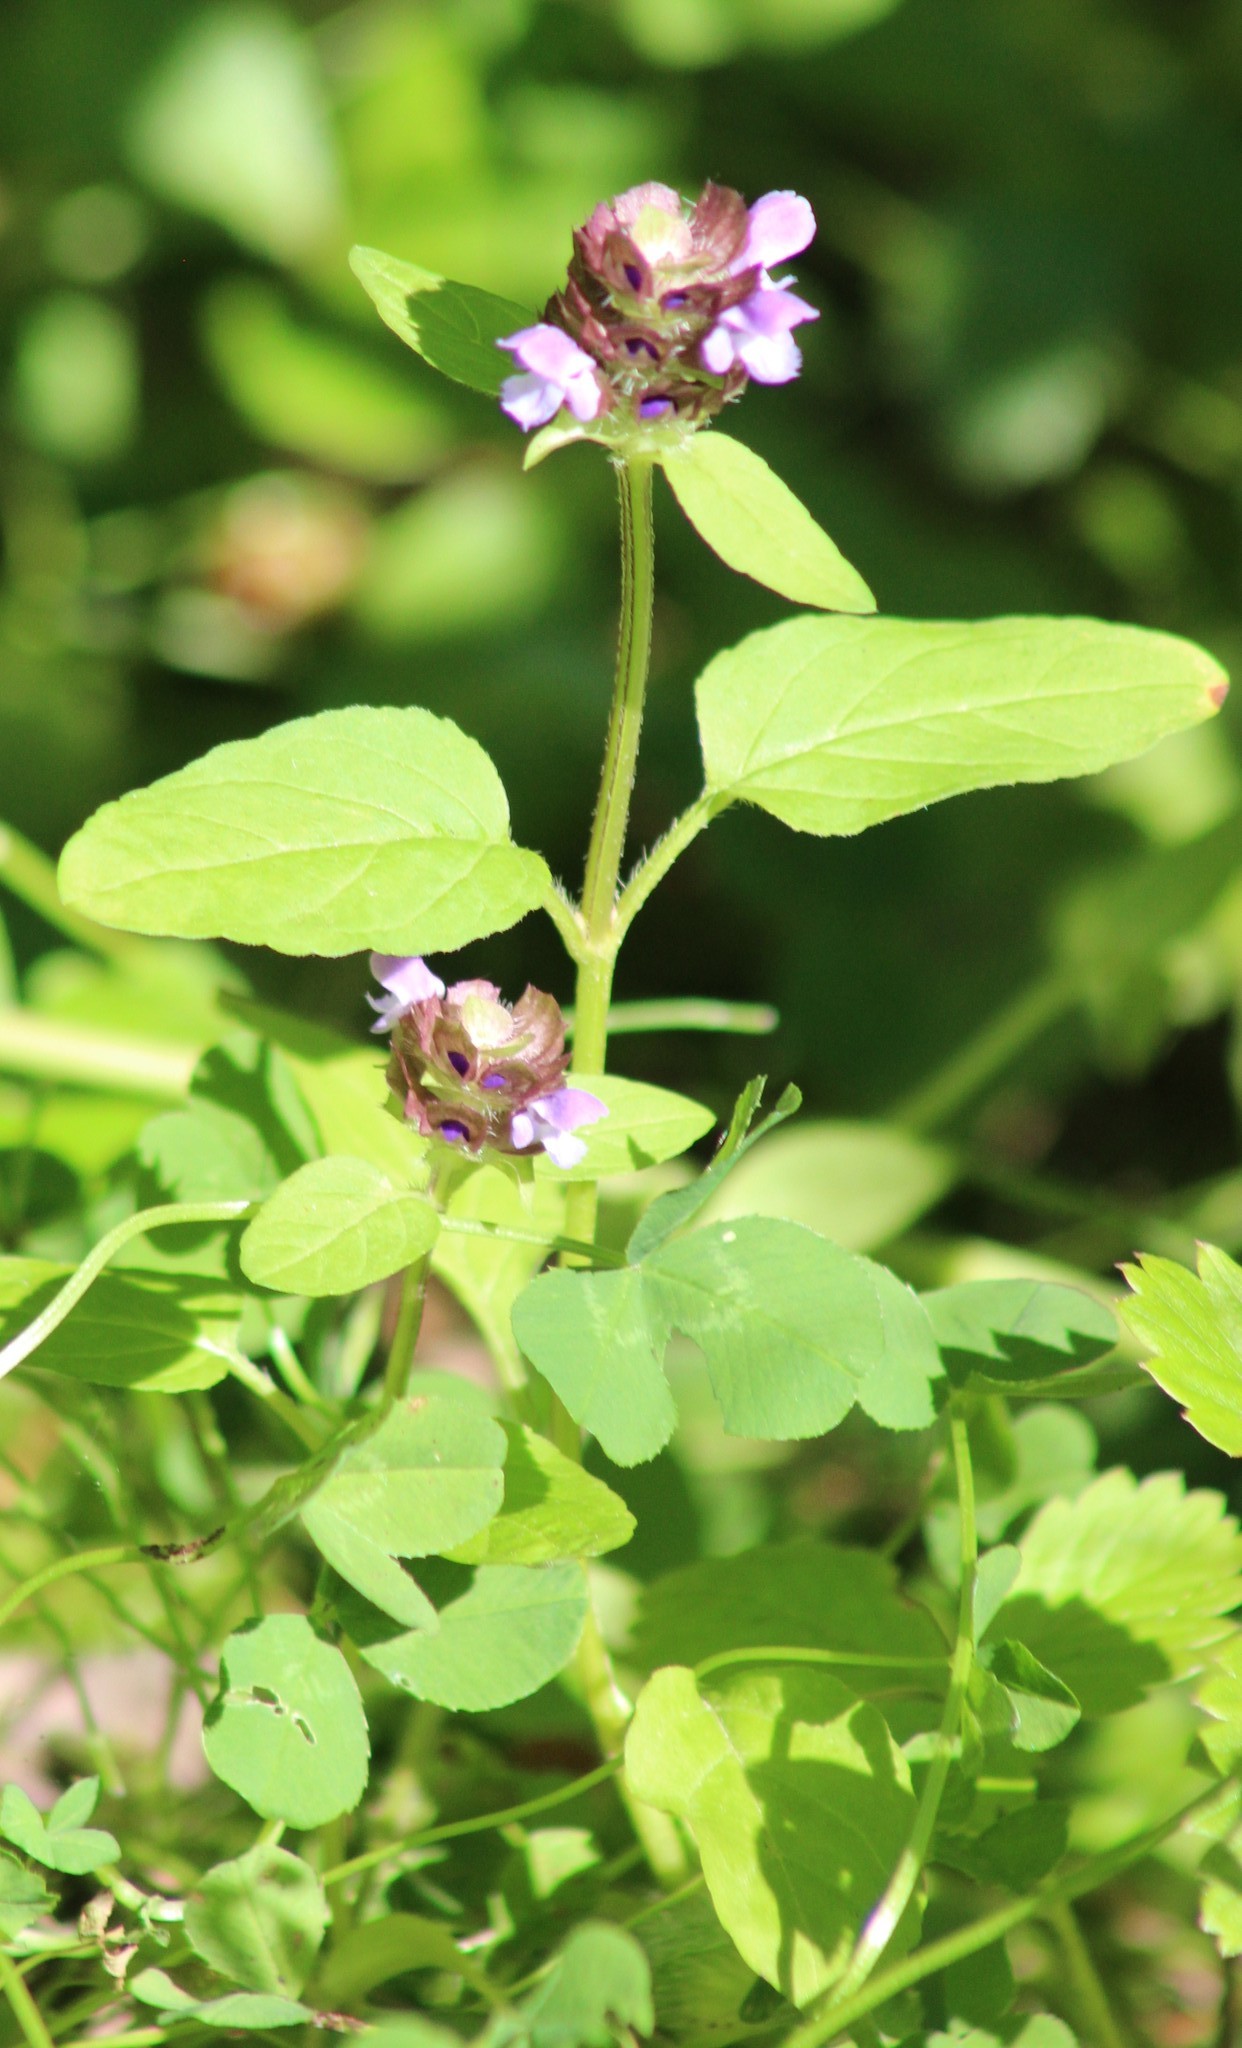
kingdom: Plantae
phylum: Tracheophyta
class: Magnoliopsida
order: Lamiales
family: Lamiaceae
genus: Prunella
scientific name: Prunella vulgaris
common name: Heal-all
